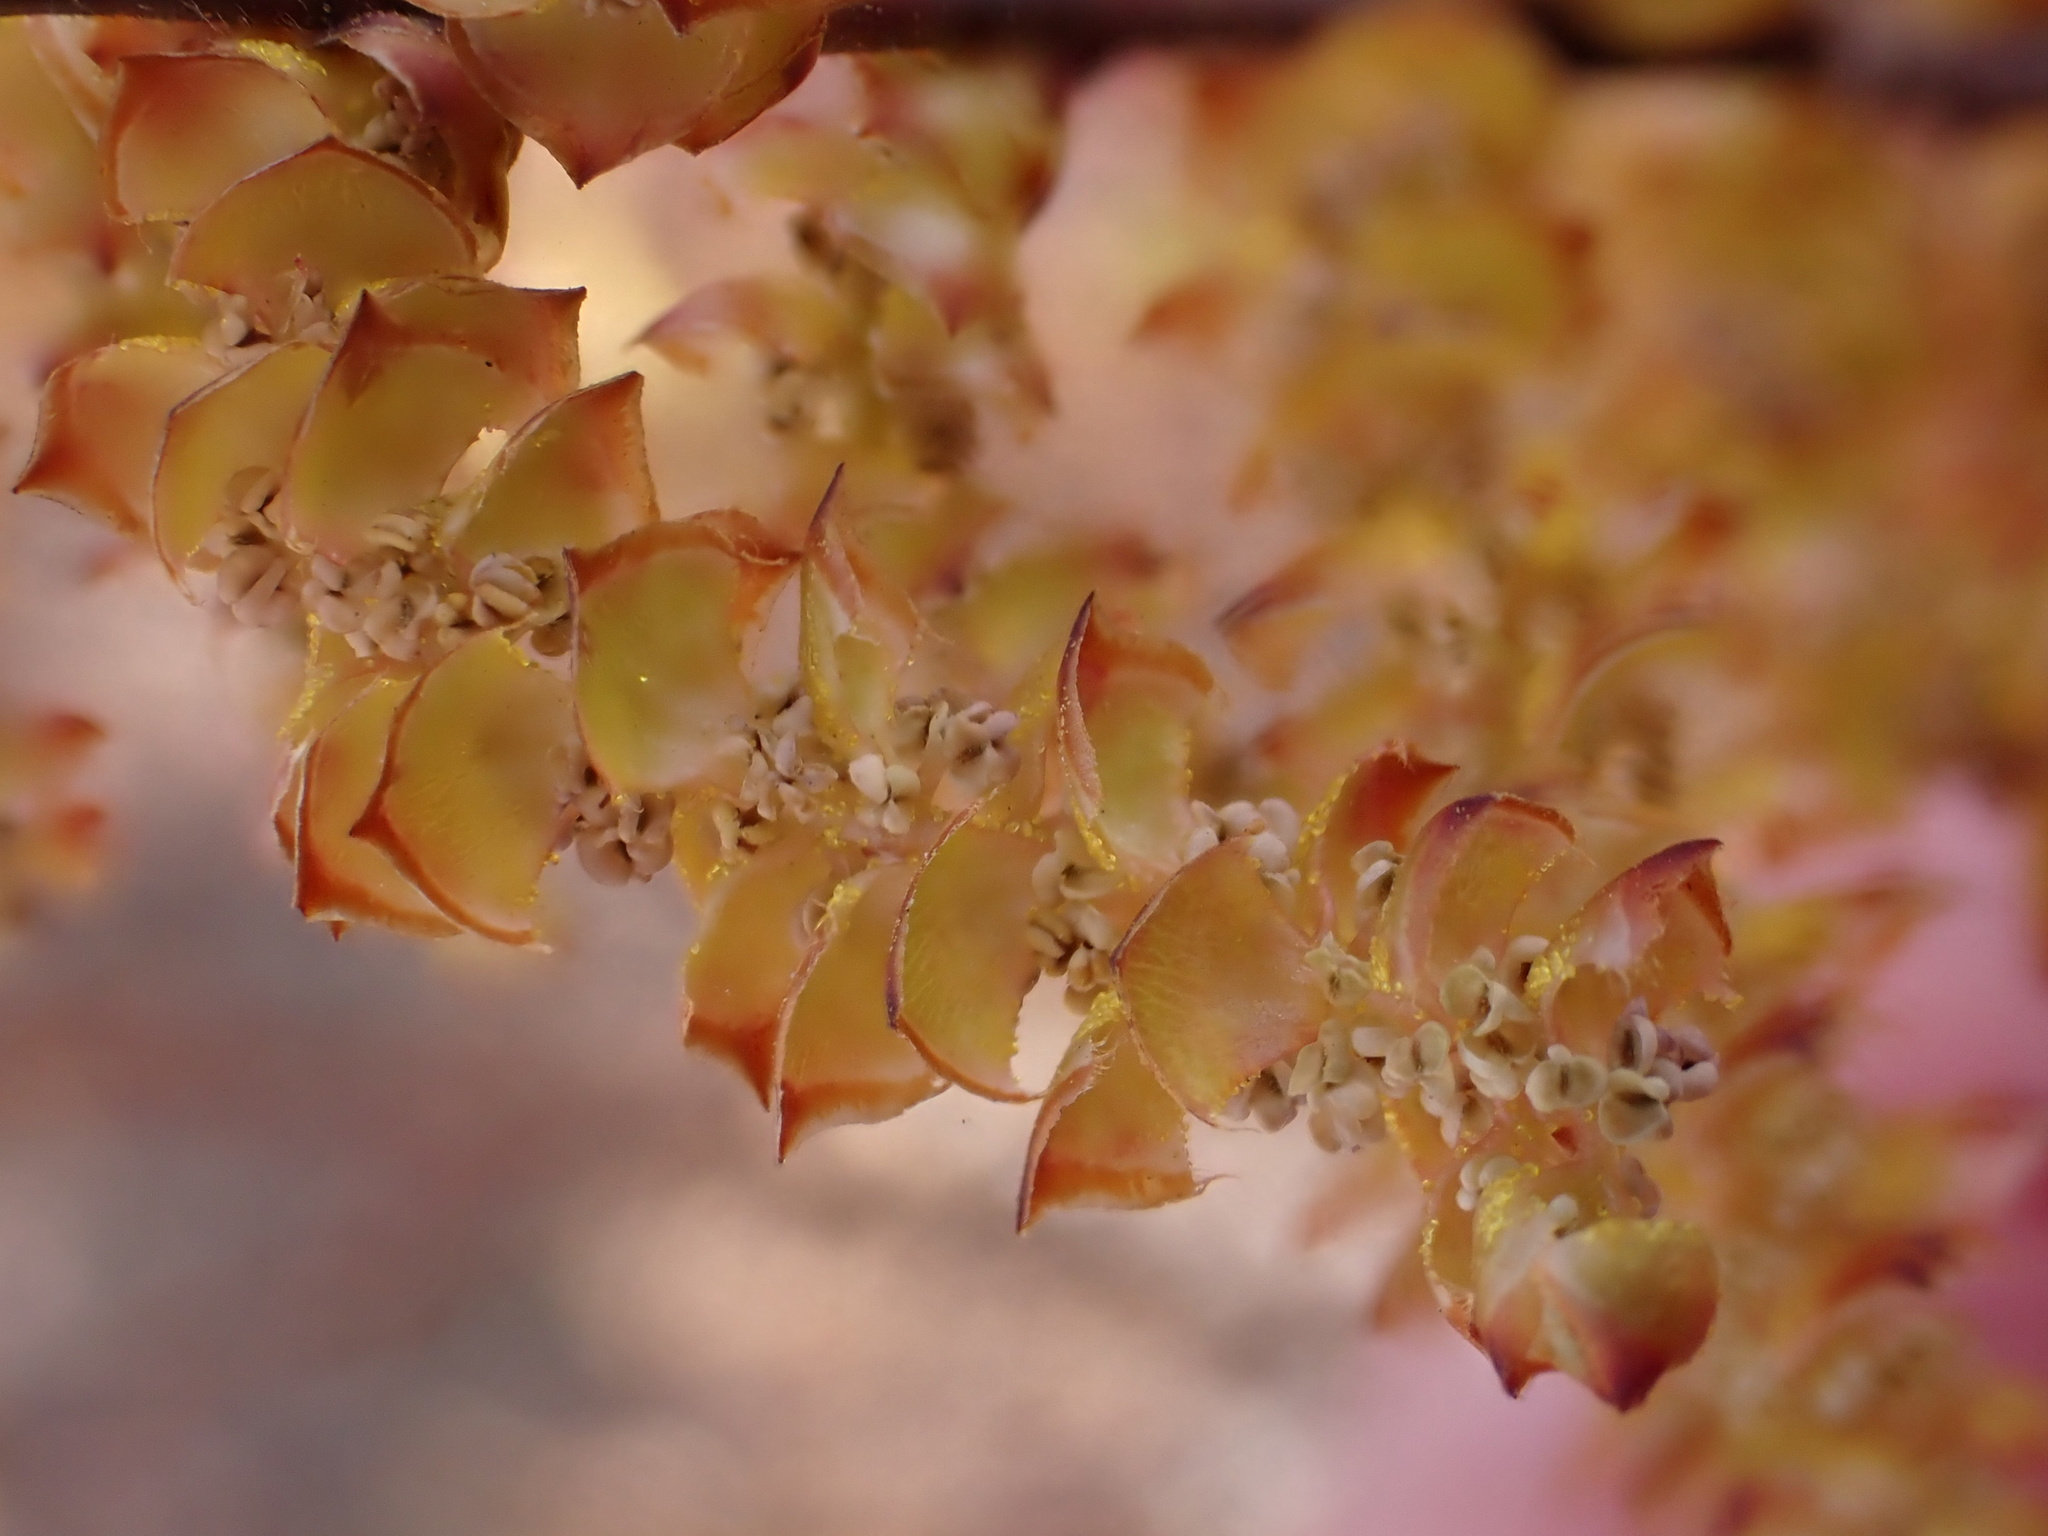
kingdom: Plantae
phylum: Tracheophyta
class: Magnoliopsida
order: Fagales
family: Myricaceae
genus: Myrica
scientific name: Myrica gale
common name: Sweet gale
